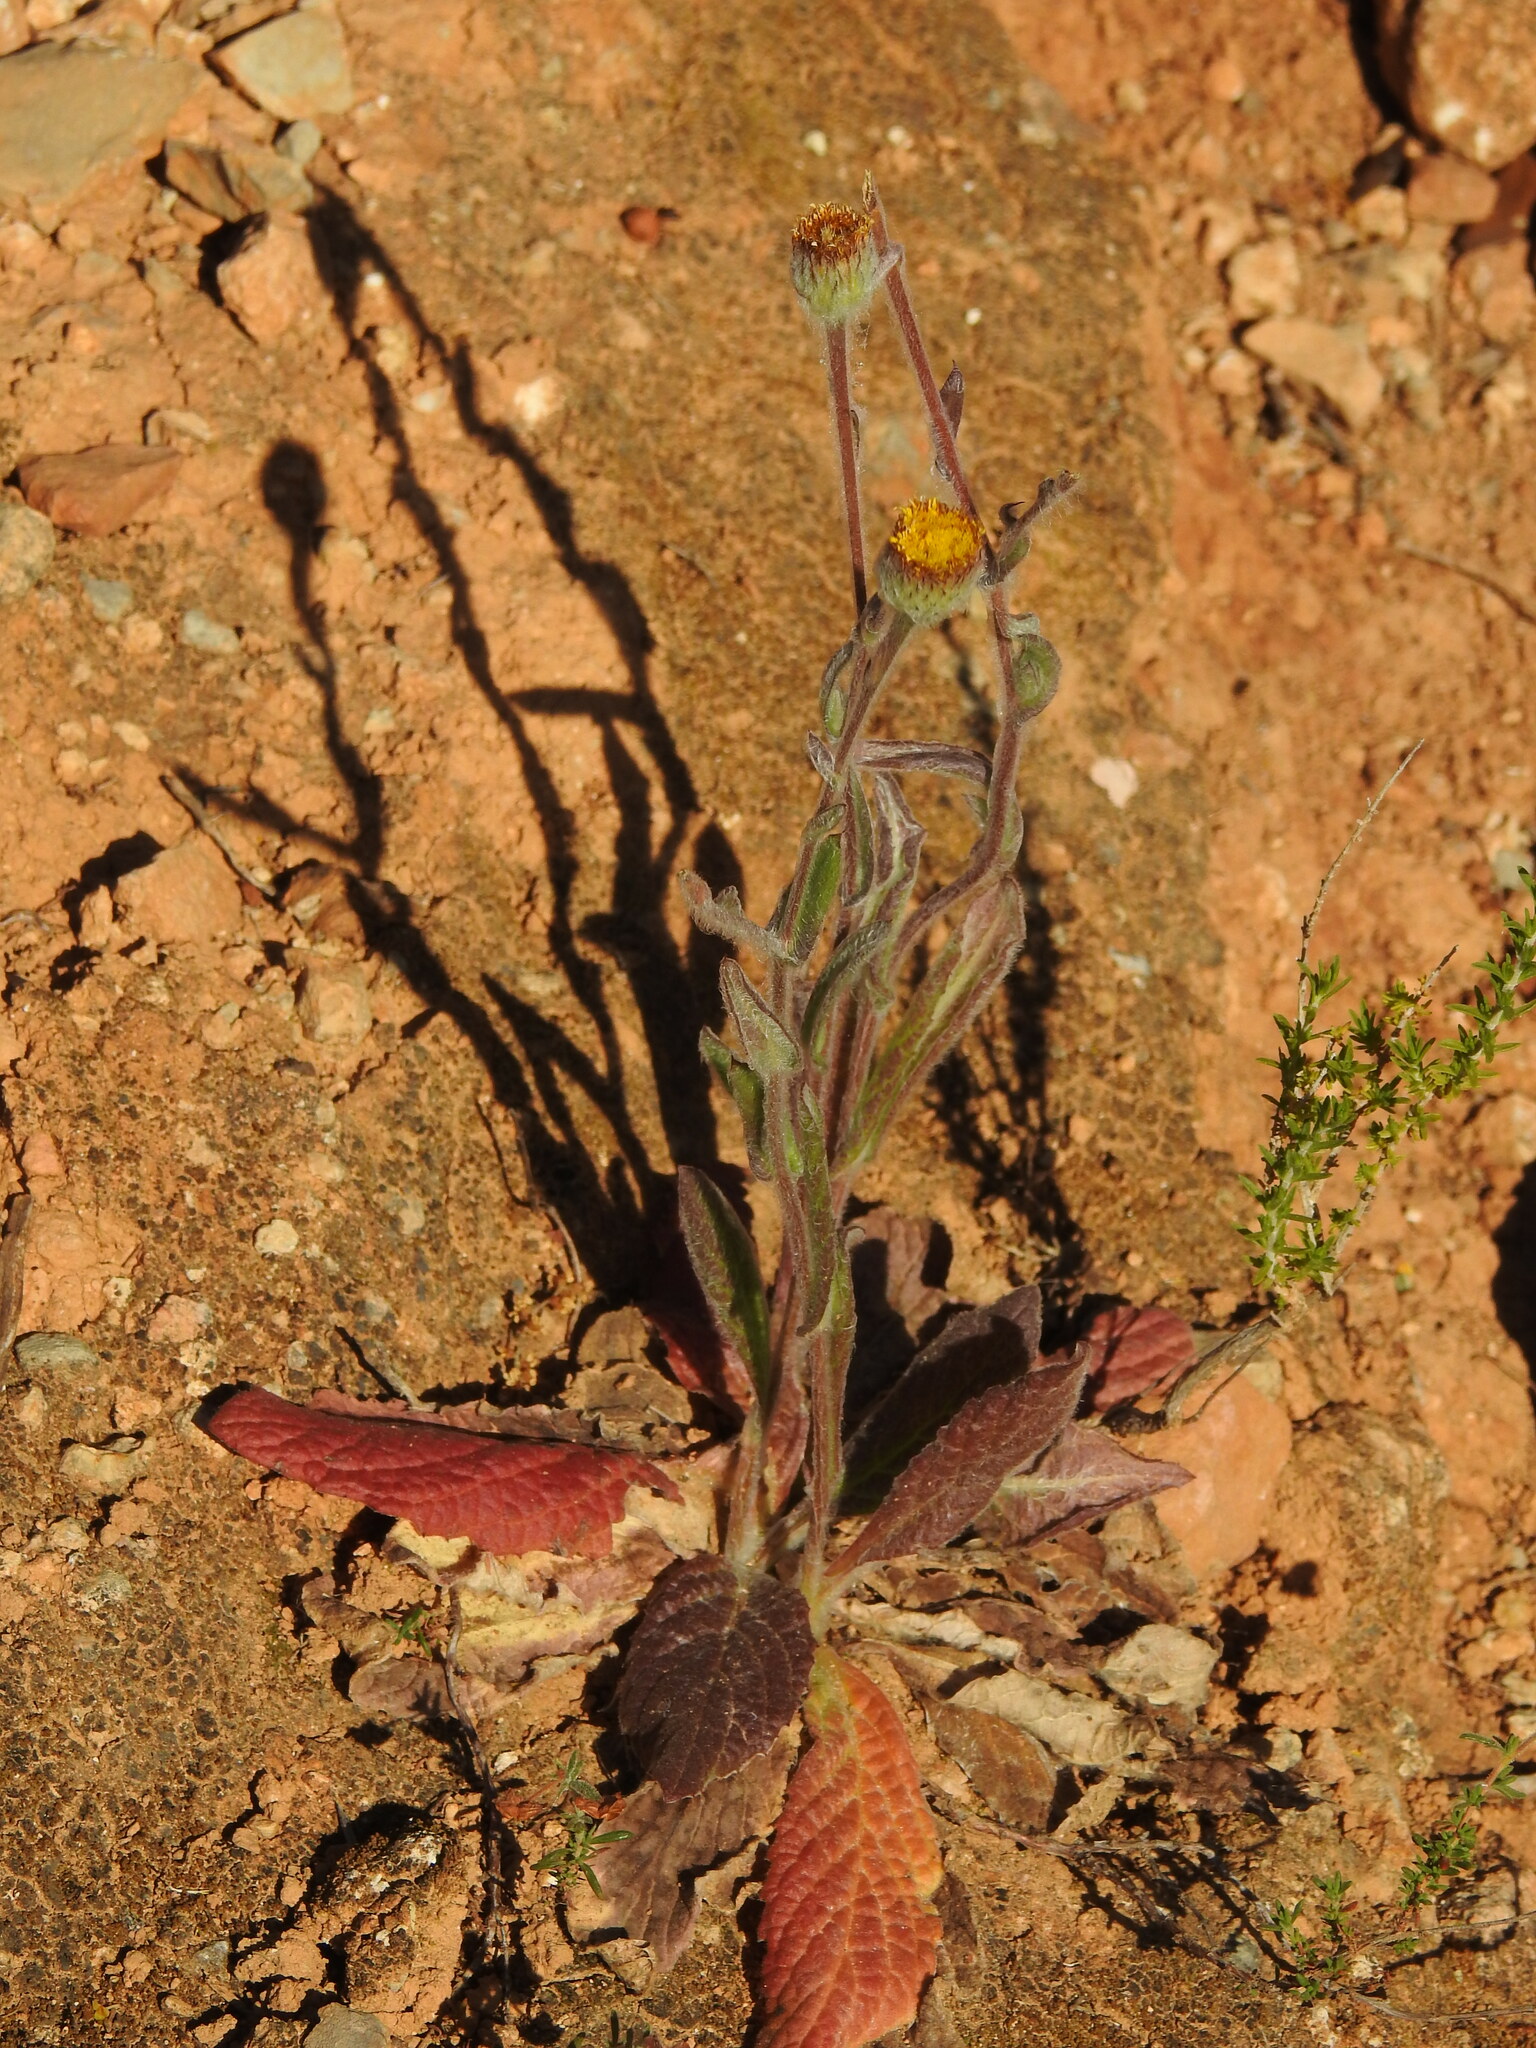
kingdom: Plantae
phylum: Tracheophyta
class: Magnoliopsida
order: Asterales
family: Asteraceae
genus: Pulicaria
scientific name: Pulicaria odora
